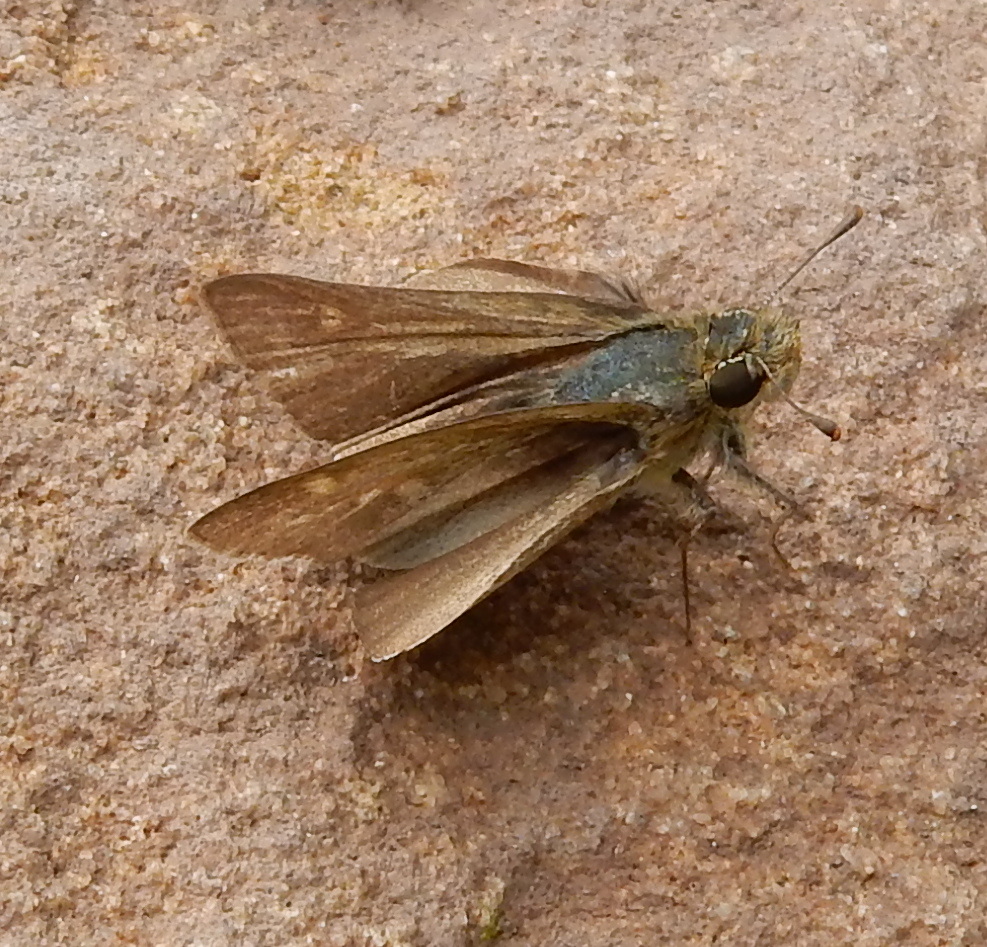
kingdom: Animalia
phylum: Arthropoda
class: Insecta
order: Hymenoptera
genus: Afrogenes
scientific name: Afrogenes
